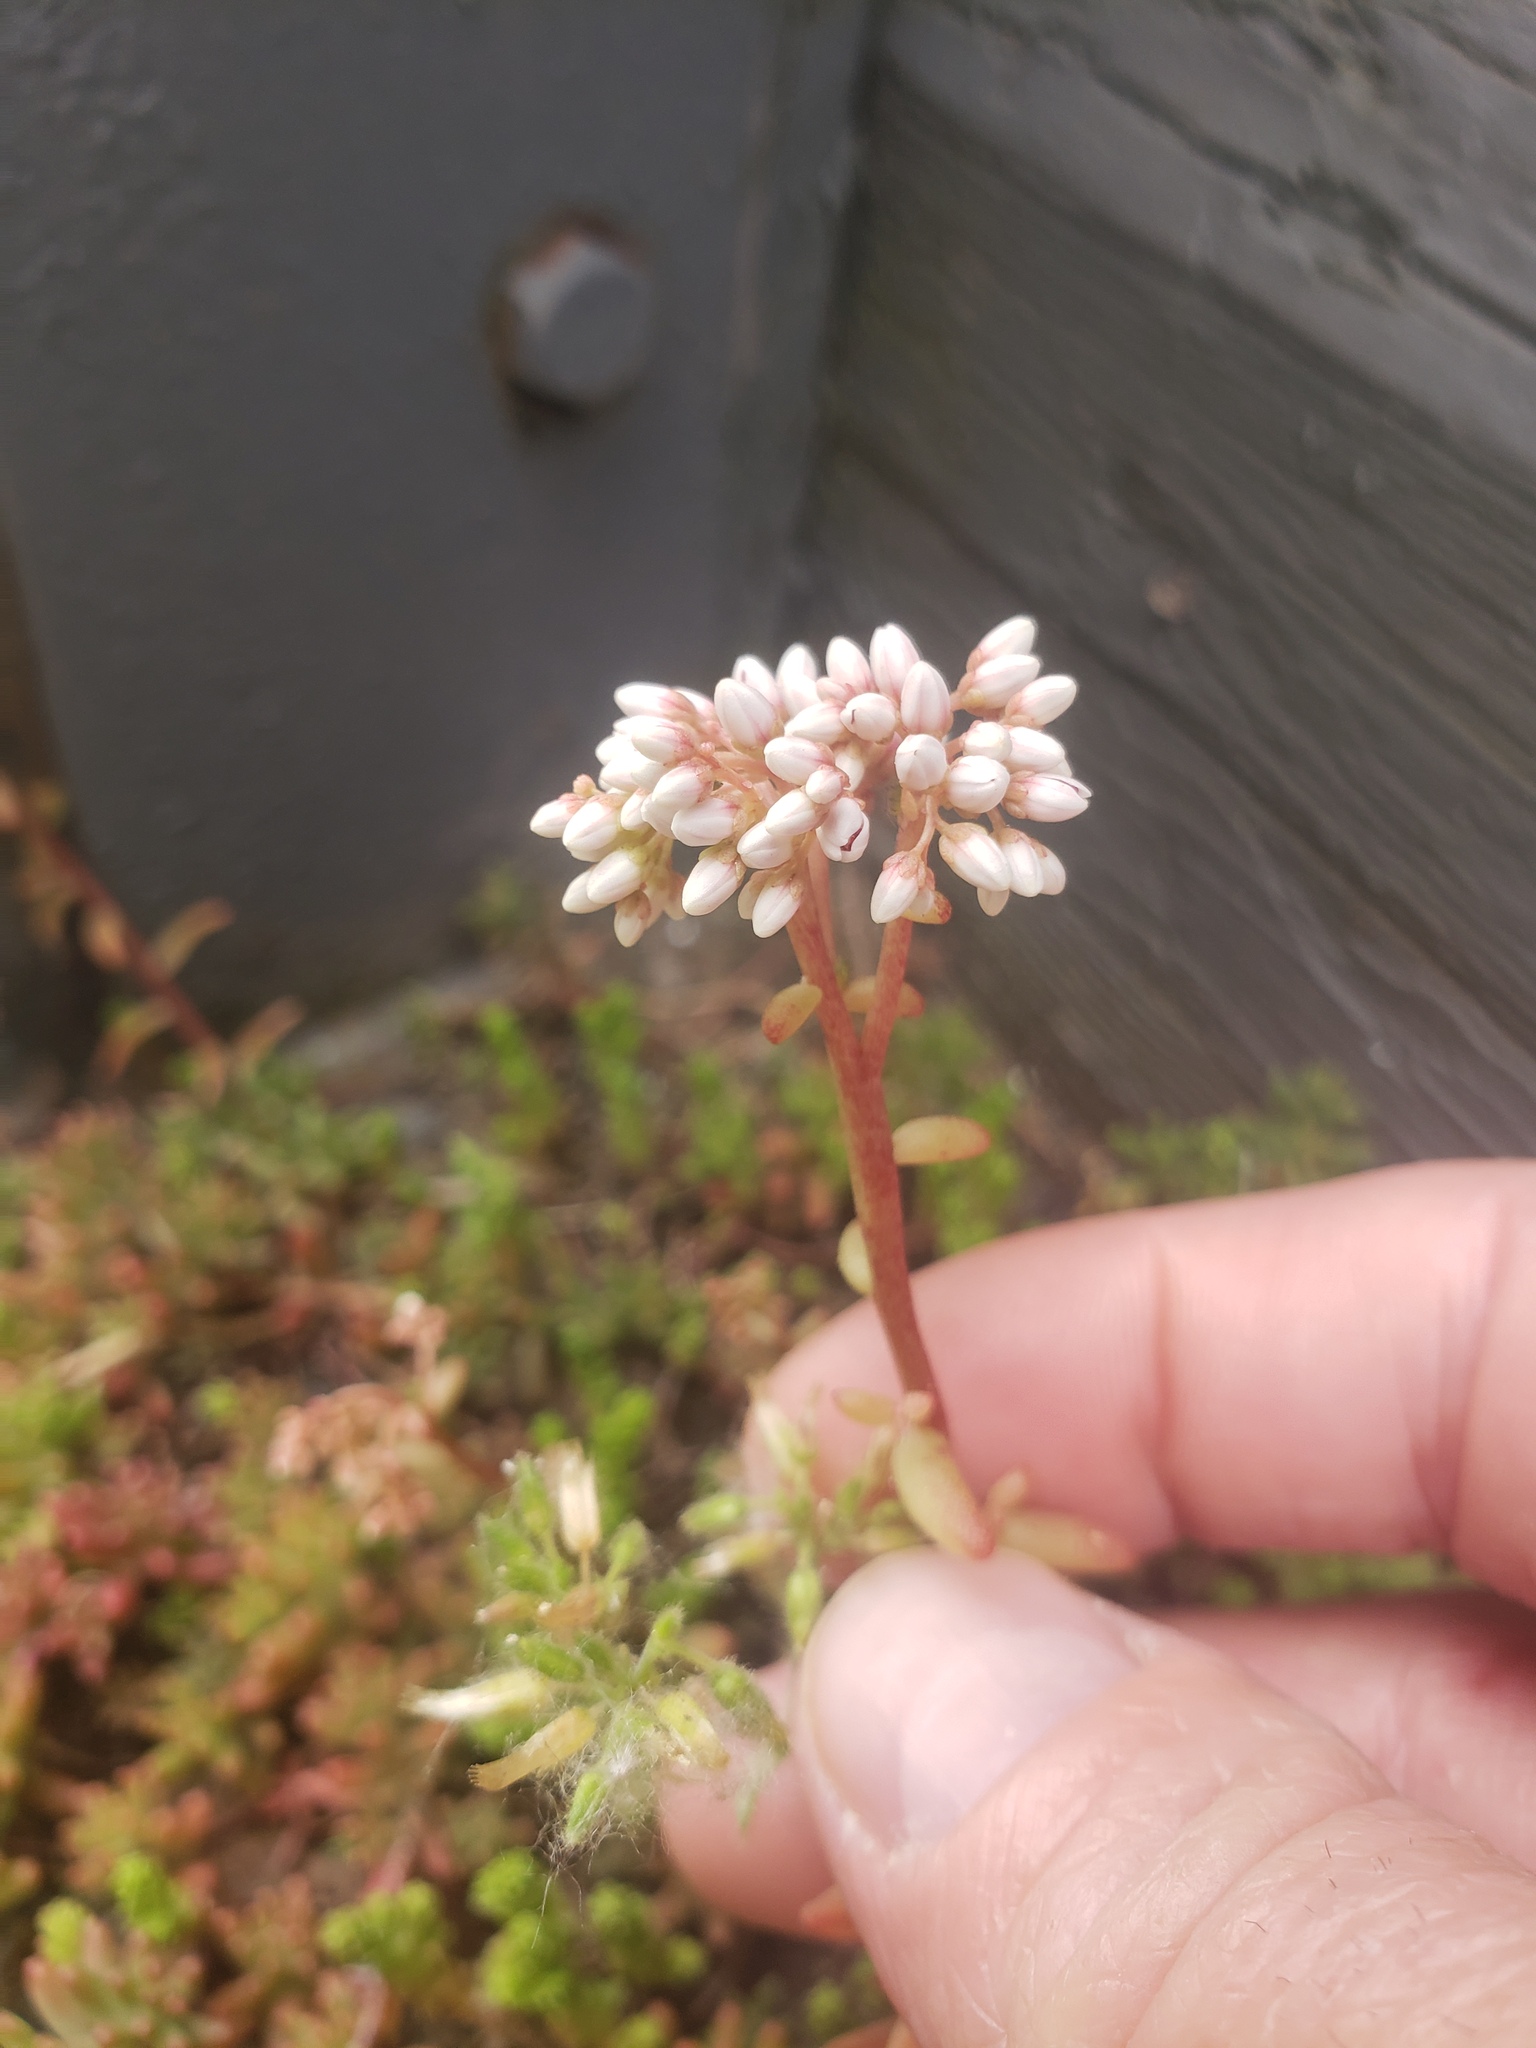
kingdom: Plantae
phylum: Tracheophyta
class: Magnoliopsida
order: Saxifragales
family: Crassulaceae
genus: Sedum
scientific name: Sedum album
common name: White stonecrop
